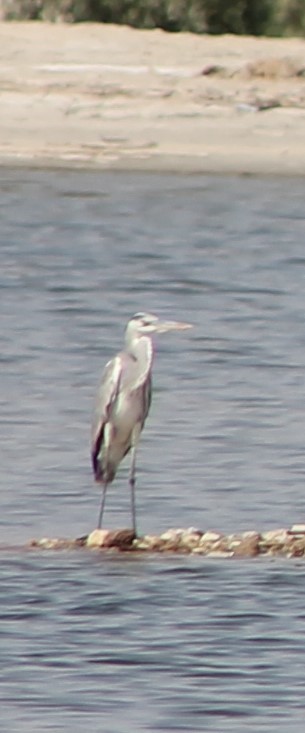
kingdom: Animalia
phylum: Chordata
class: Aves
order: Pelecaniformes
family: Ardeidae
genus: Ardea
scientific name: Ardea cinerea
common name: Grey heron
